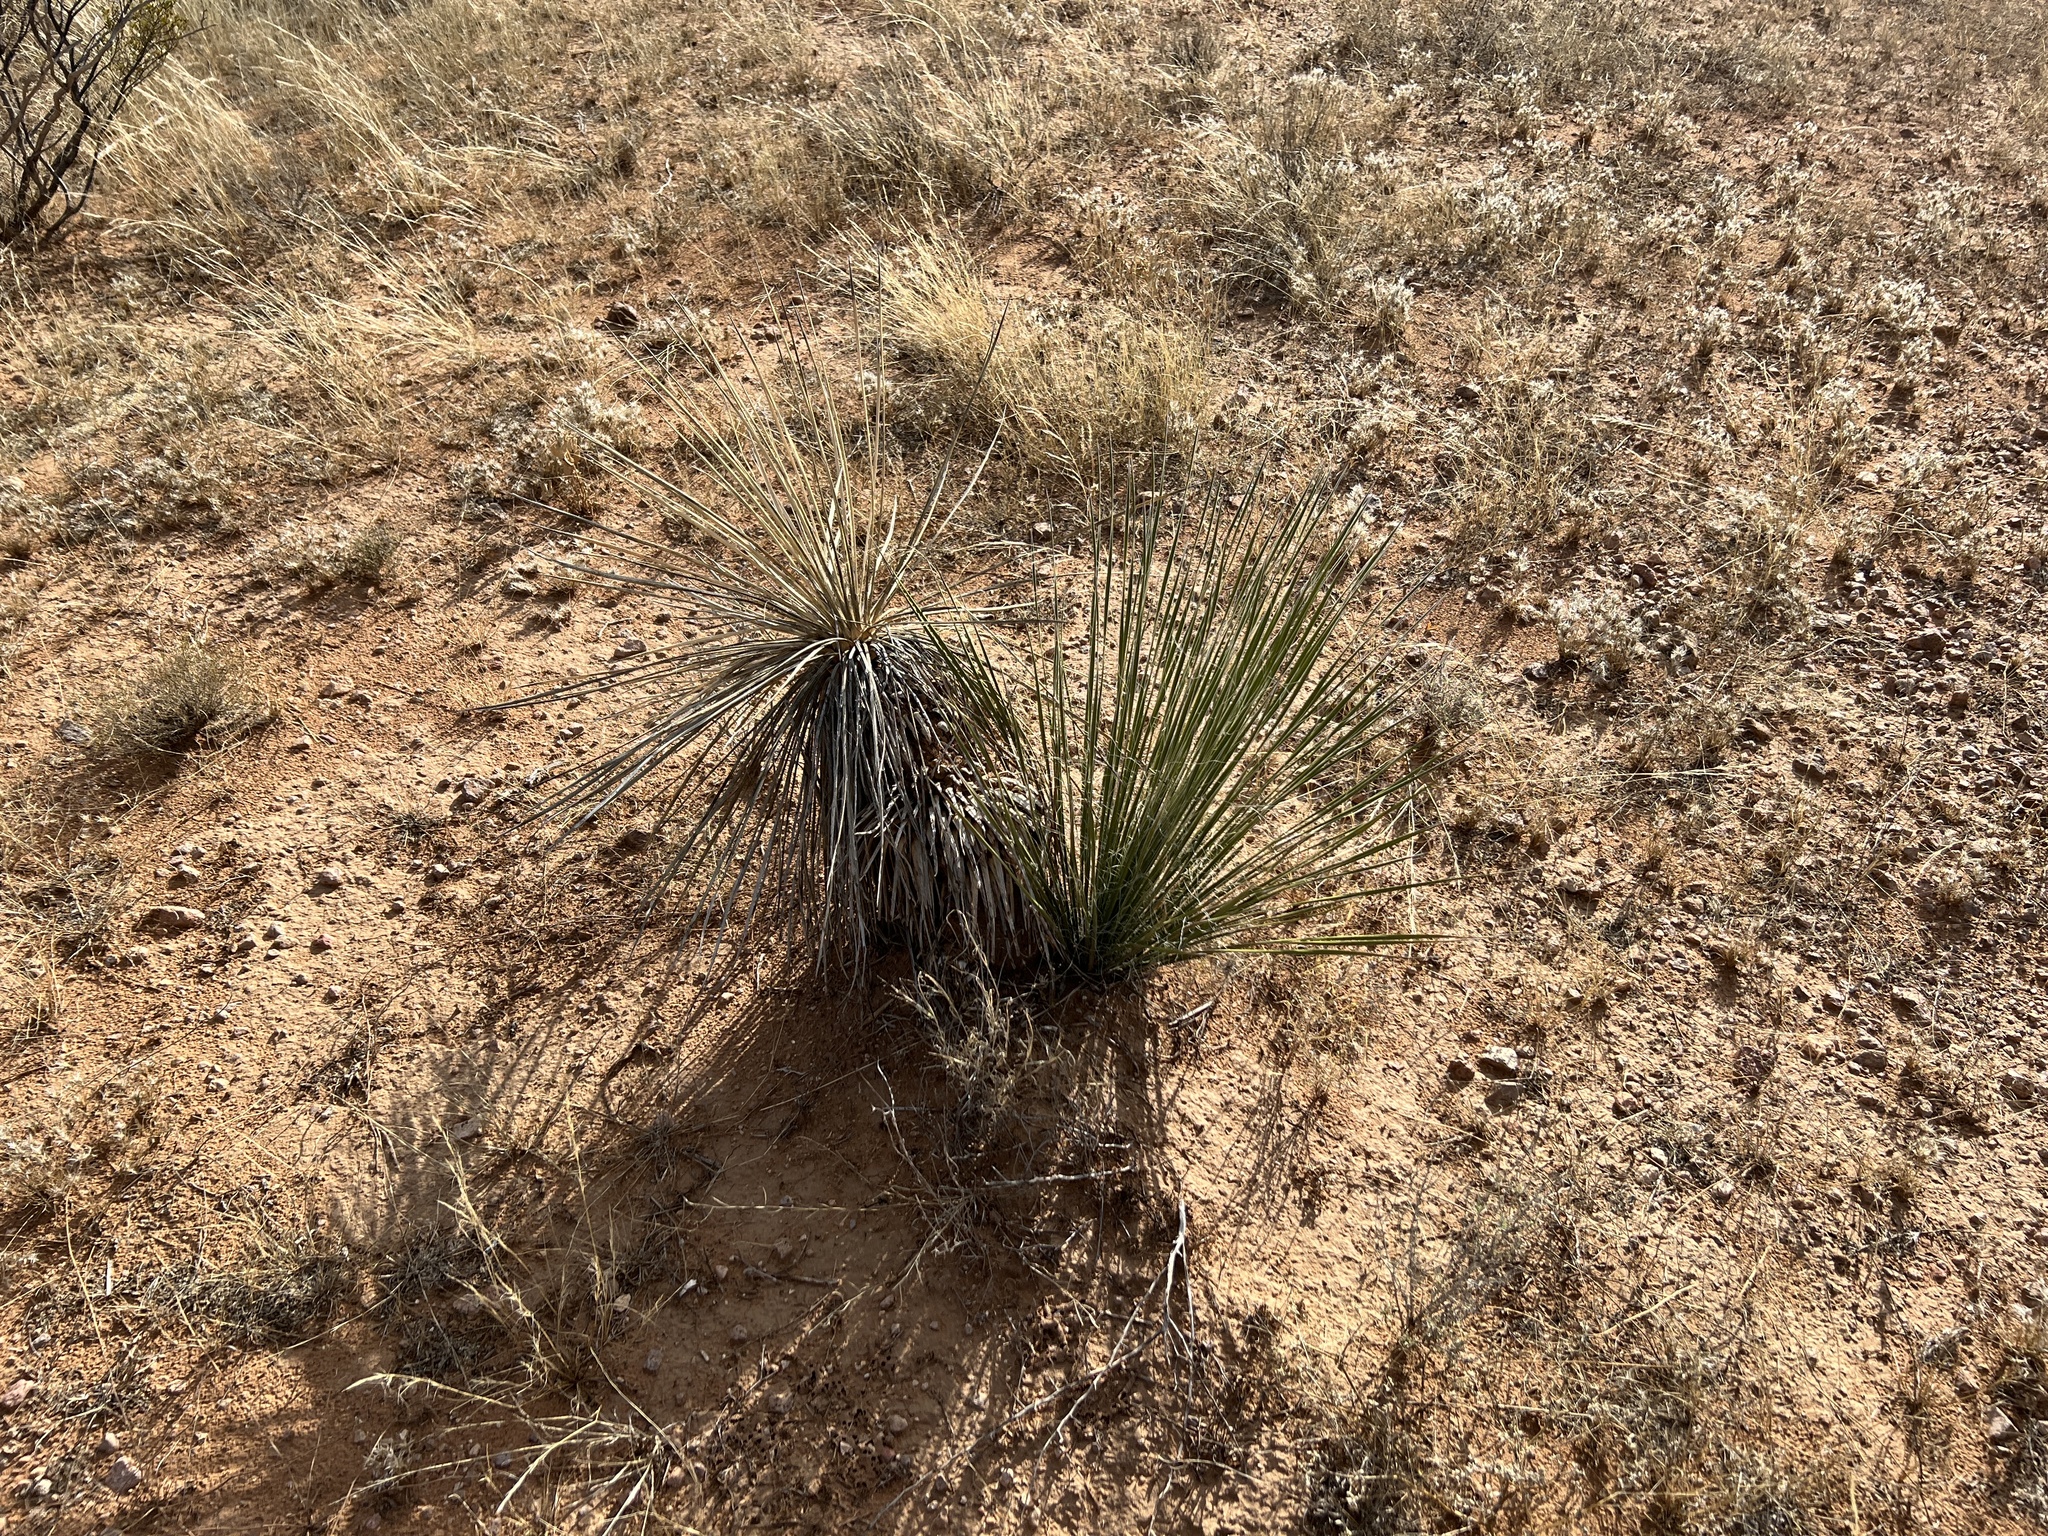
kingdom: Plantae
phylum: Tracheophyta
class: Liliopsida
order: Asparagales
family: Asparagaceae
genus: Yucca
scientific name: Yucca elata
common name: Palmella
